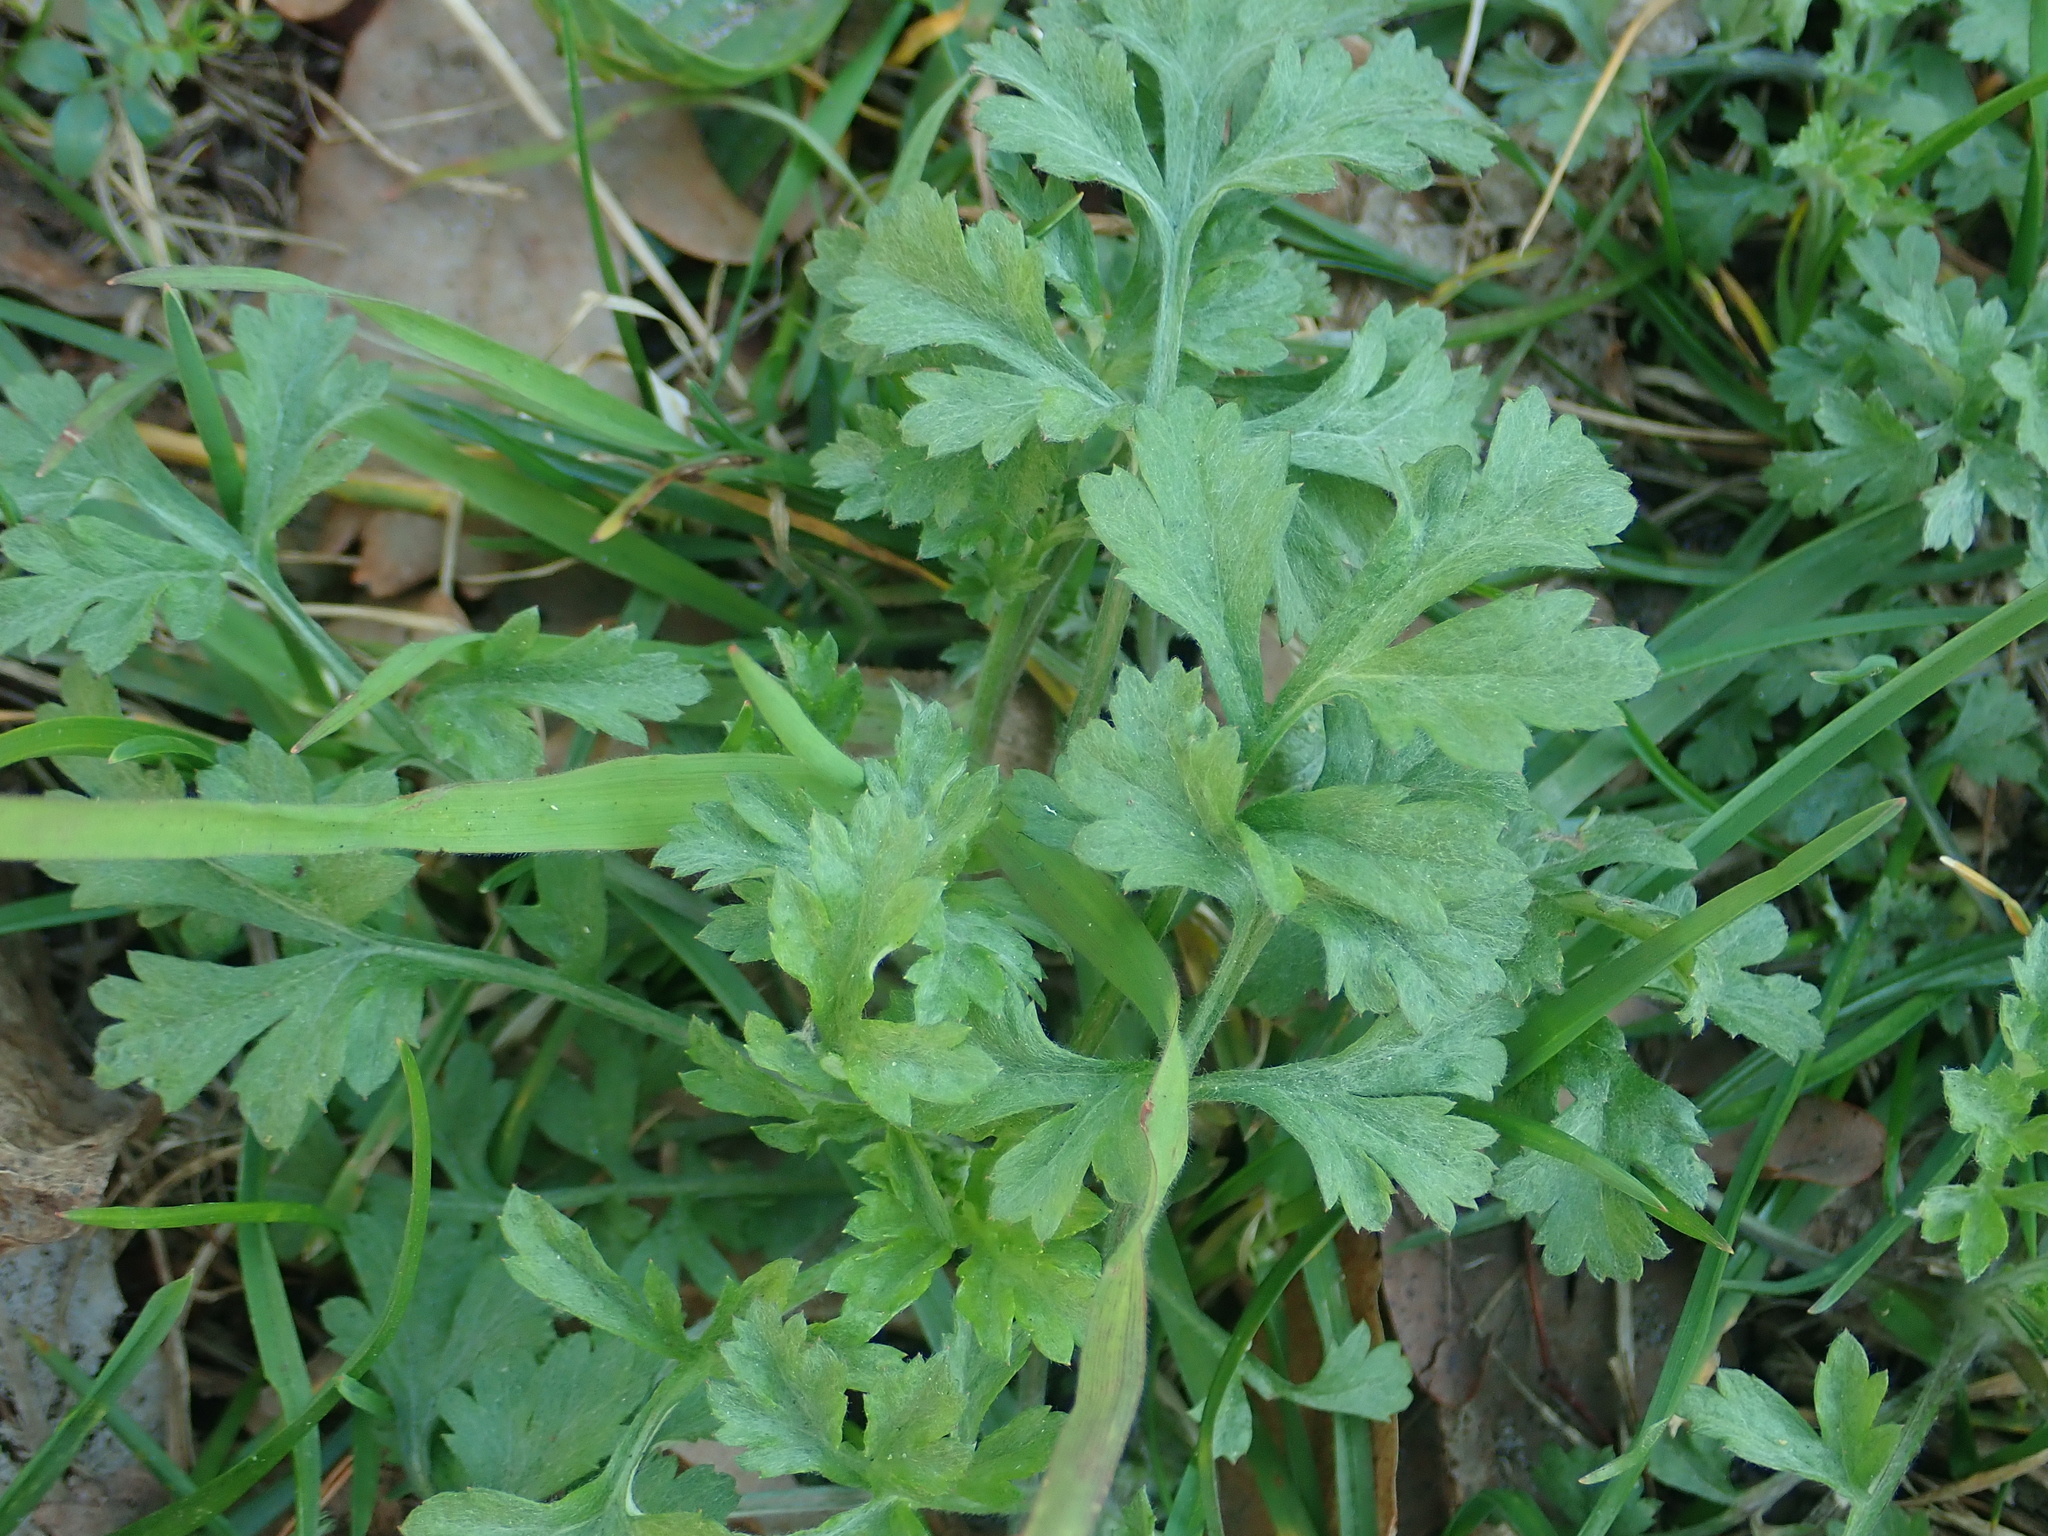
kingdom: Plantae
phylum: Tracheophyta
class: Magnoliopsida
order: Asterales
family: Asteraceae
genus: Artemisia
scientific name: Artemisia vulgaris
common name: Mugwort
